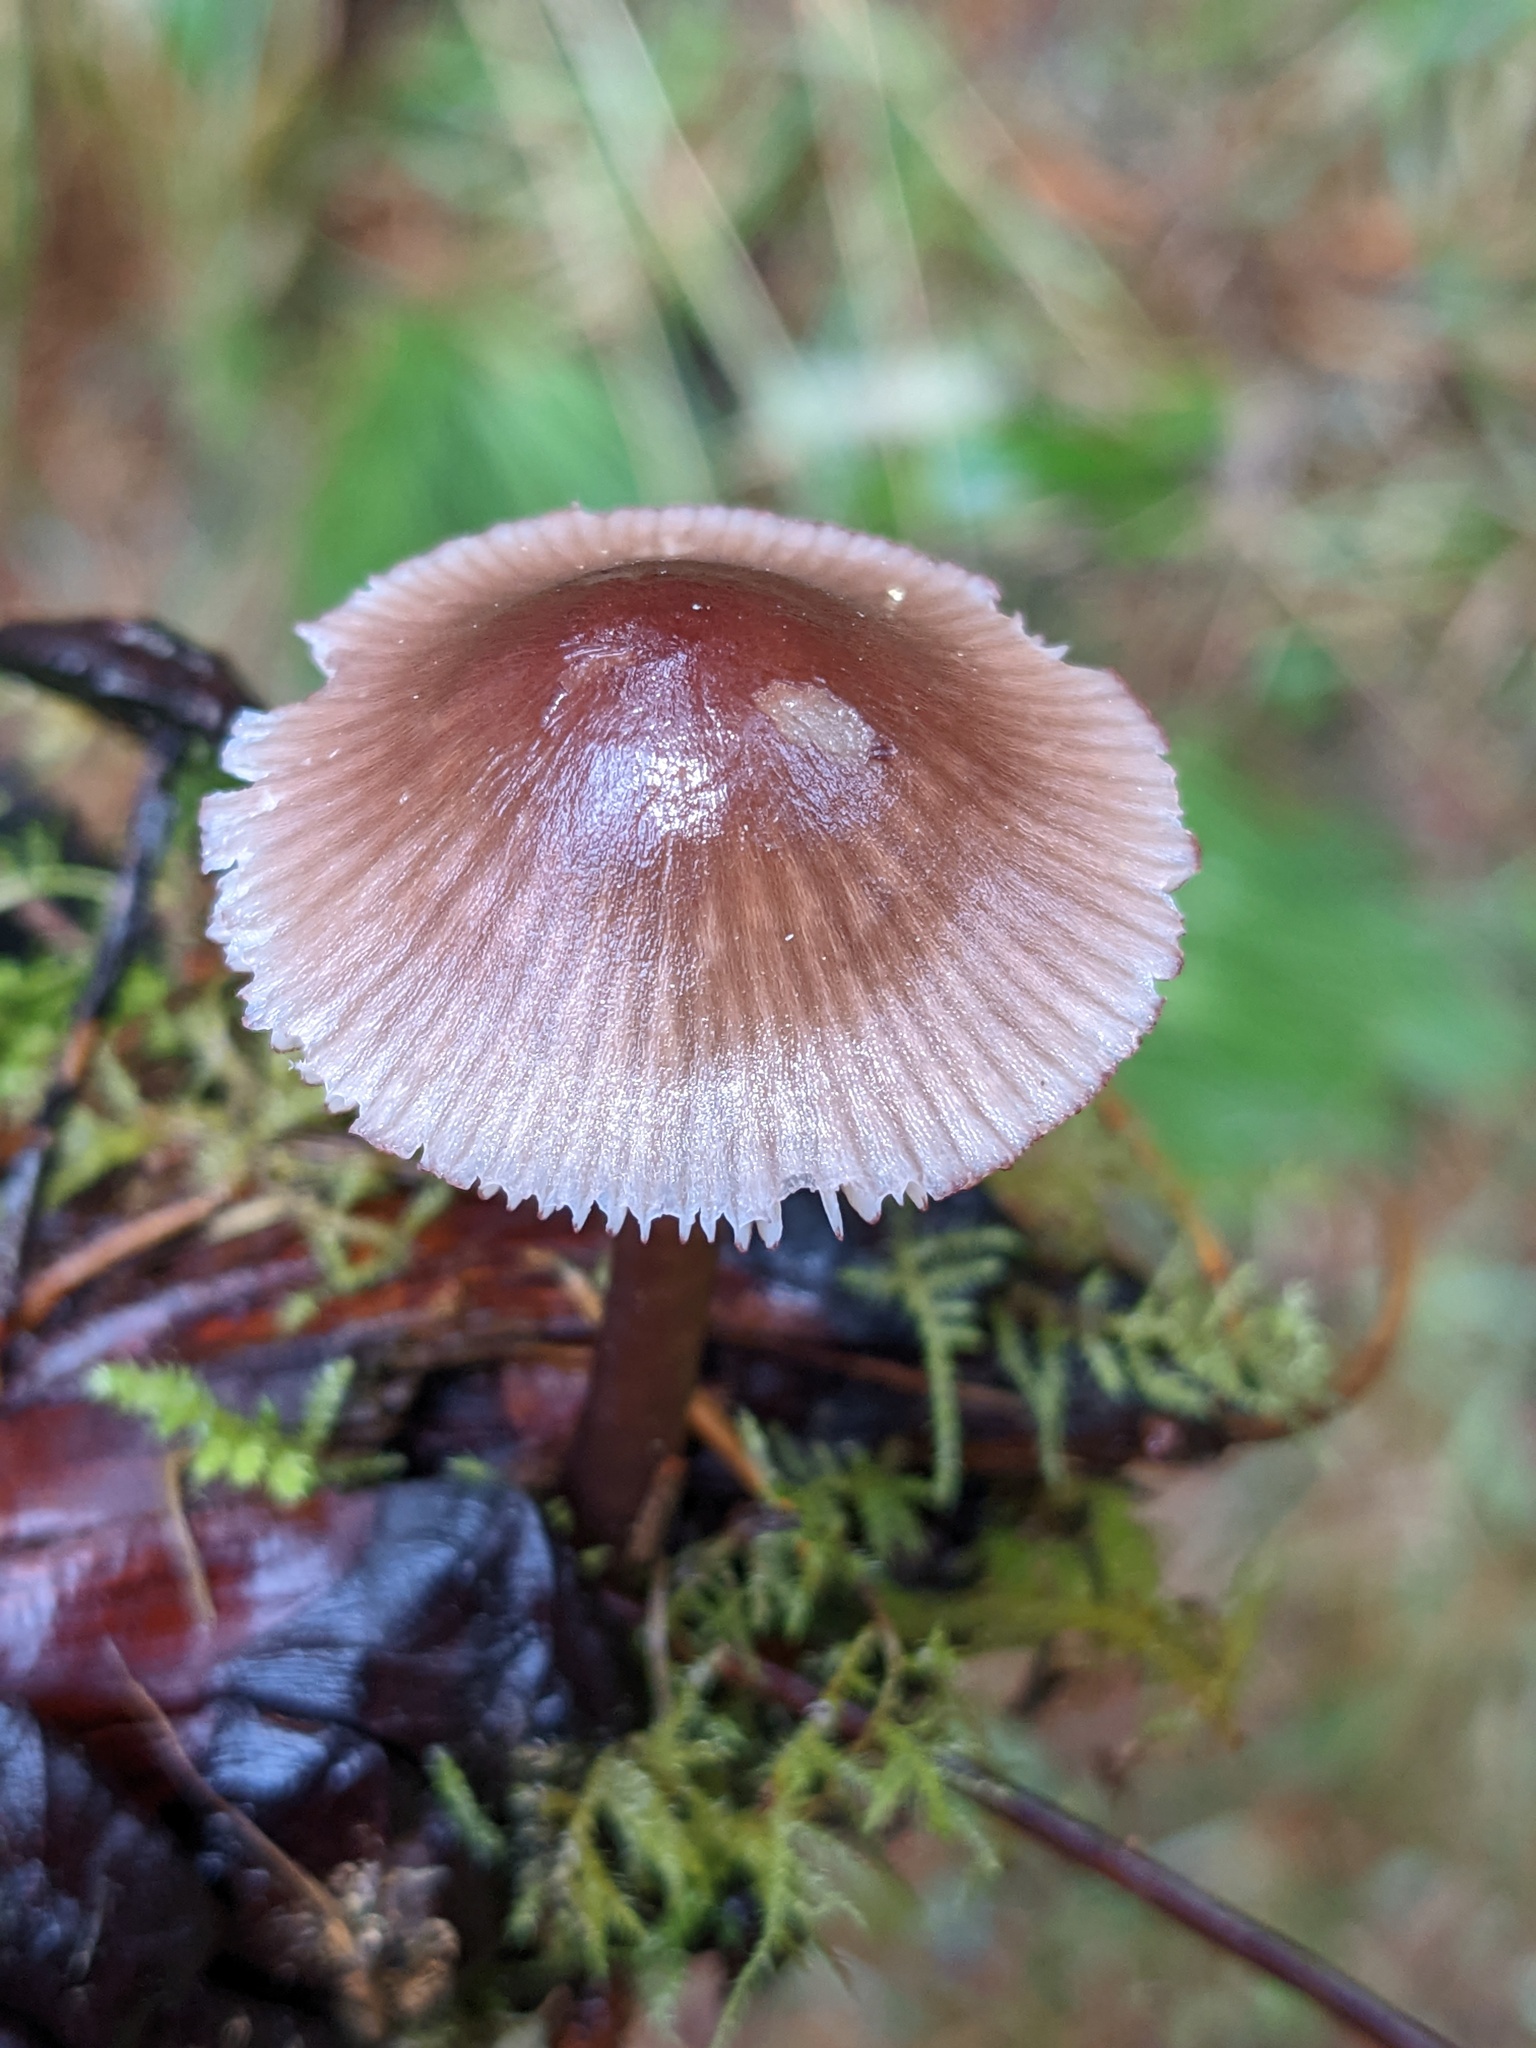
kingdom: Fungi
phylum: Basidiomycota
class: Agaricomycetes
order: Agaricales
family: Mycenaceae
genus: Mycena
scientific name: Mycena purpureofusca
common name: Purple edge bonnet
